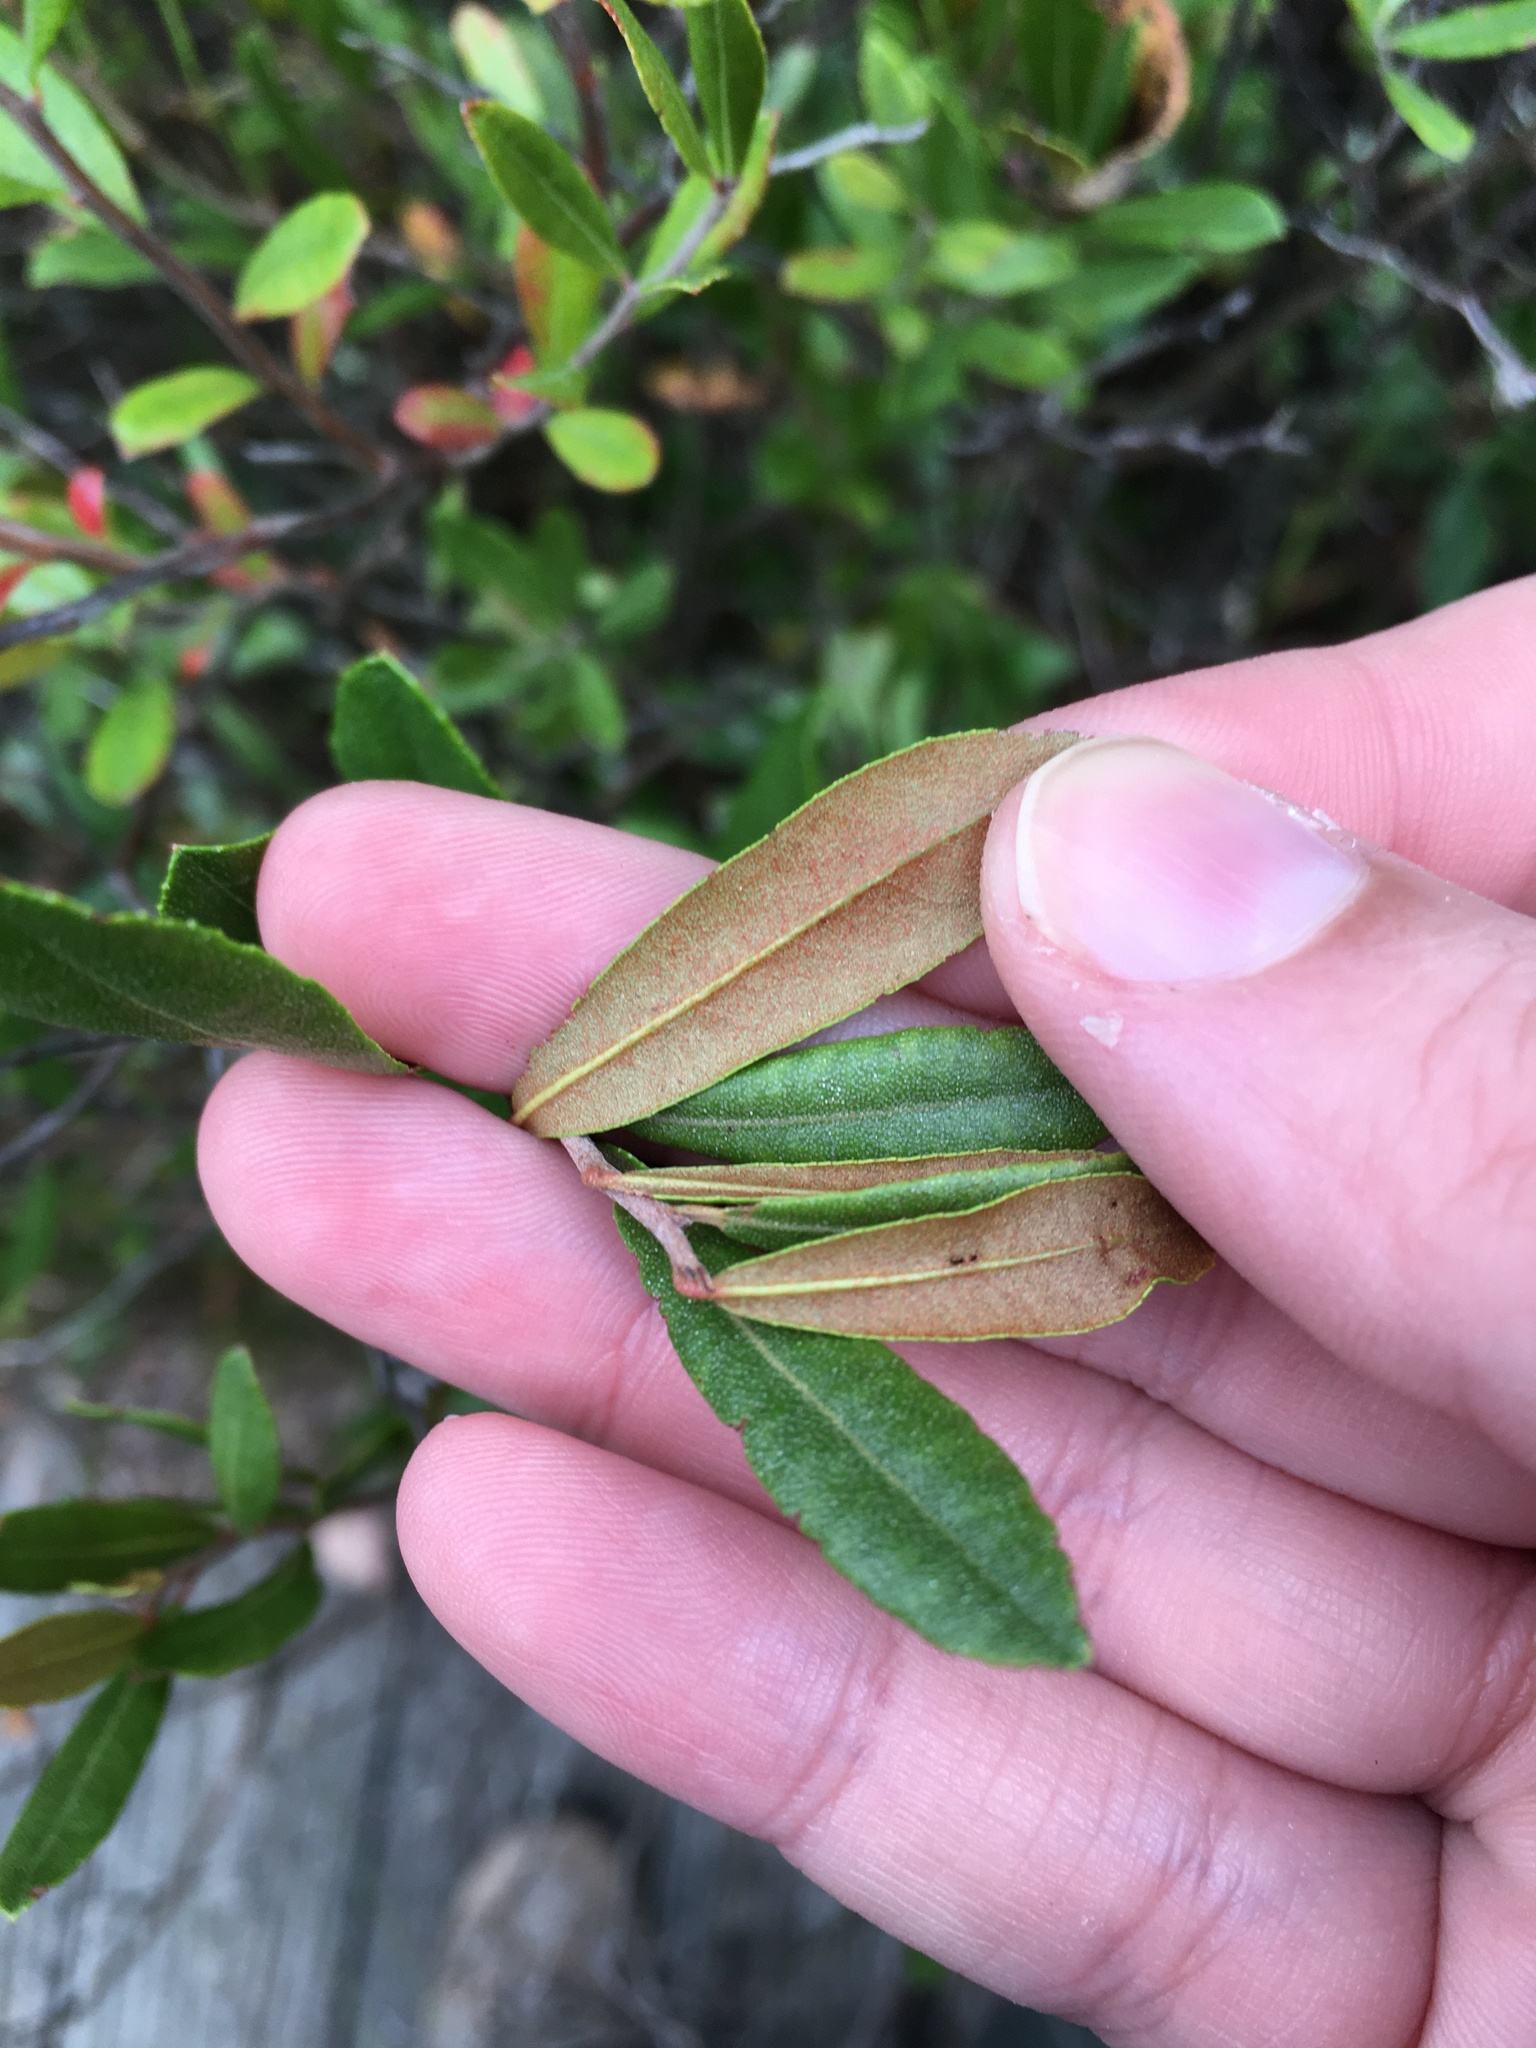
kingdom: Plantae
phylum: Tracheophyta
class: Magnoliopsida
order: Ericales
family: Ericaceae
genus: Chamaedaphne
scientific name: Chamaedaphne calyculata
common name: Leatherleaf
